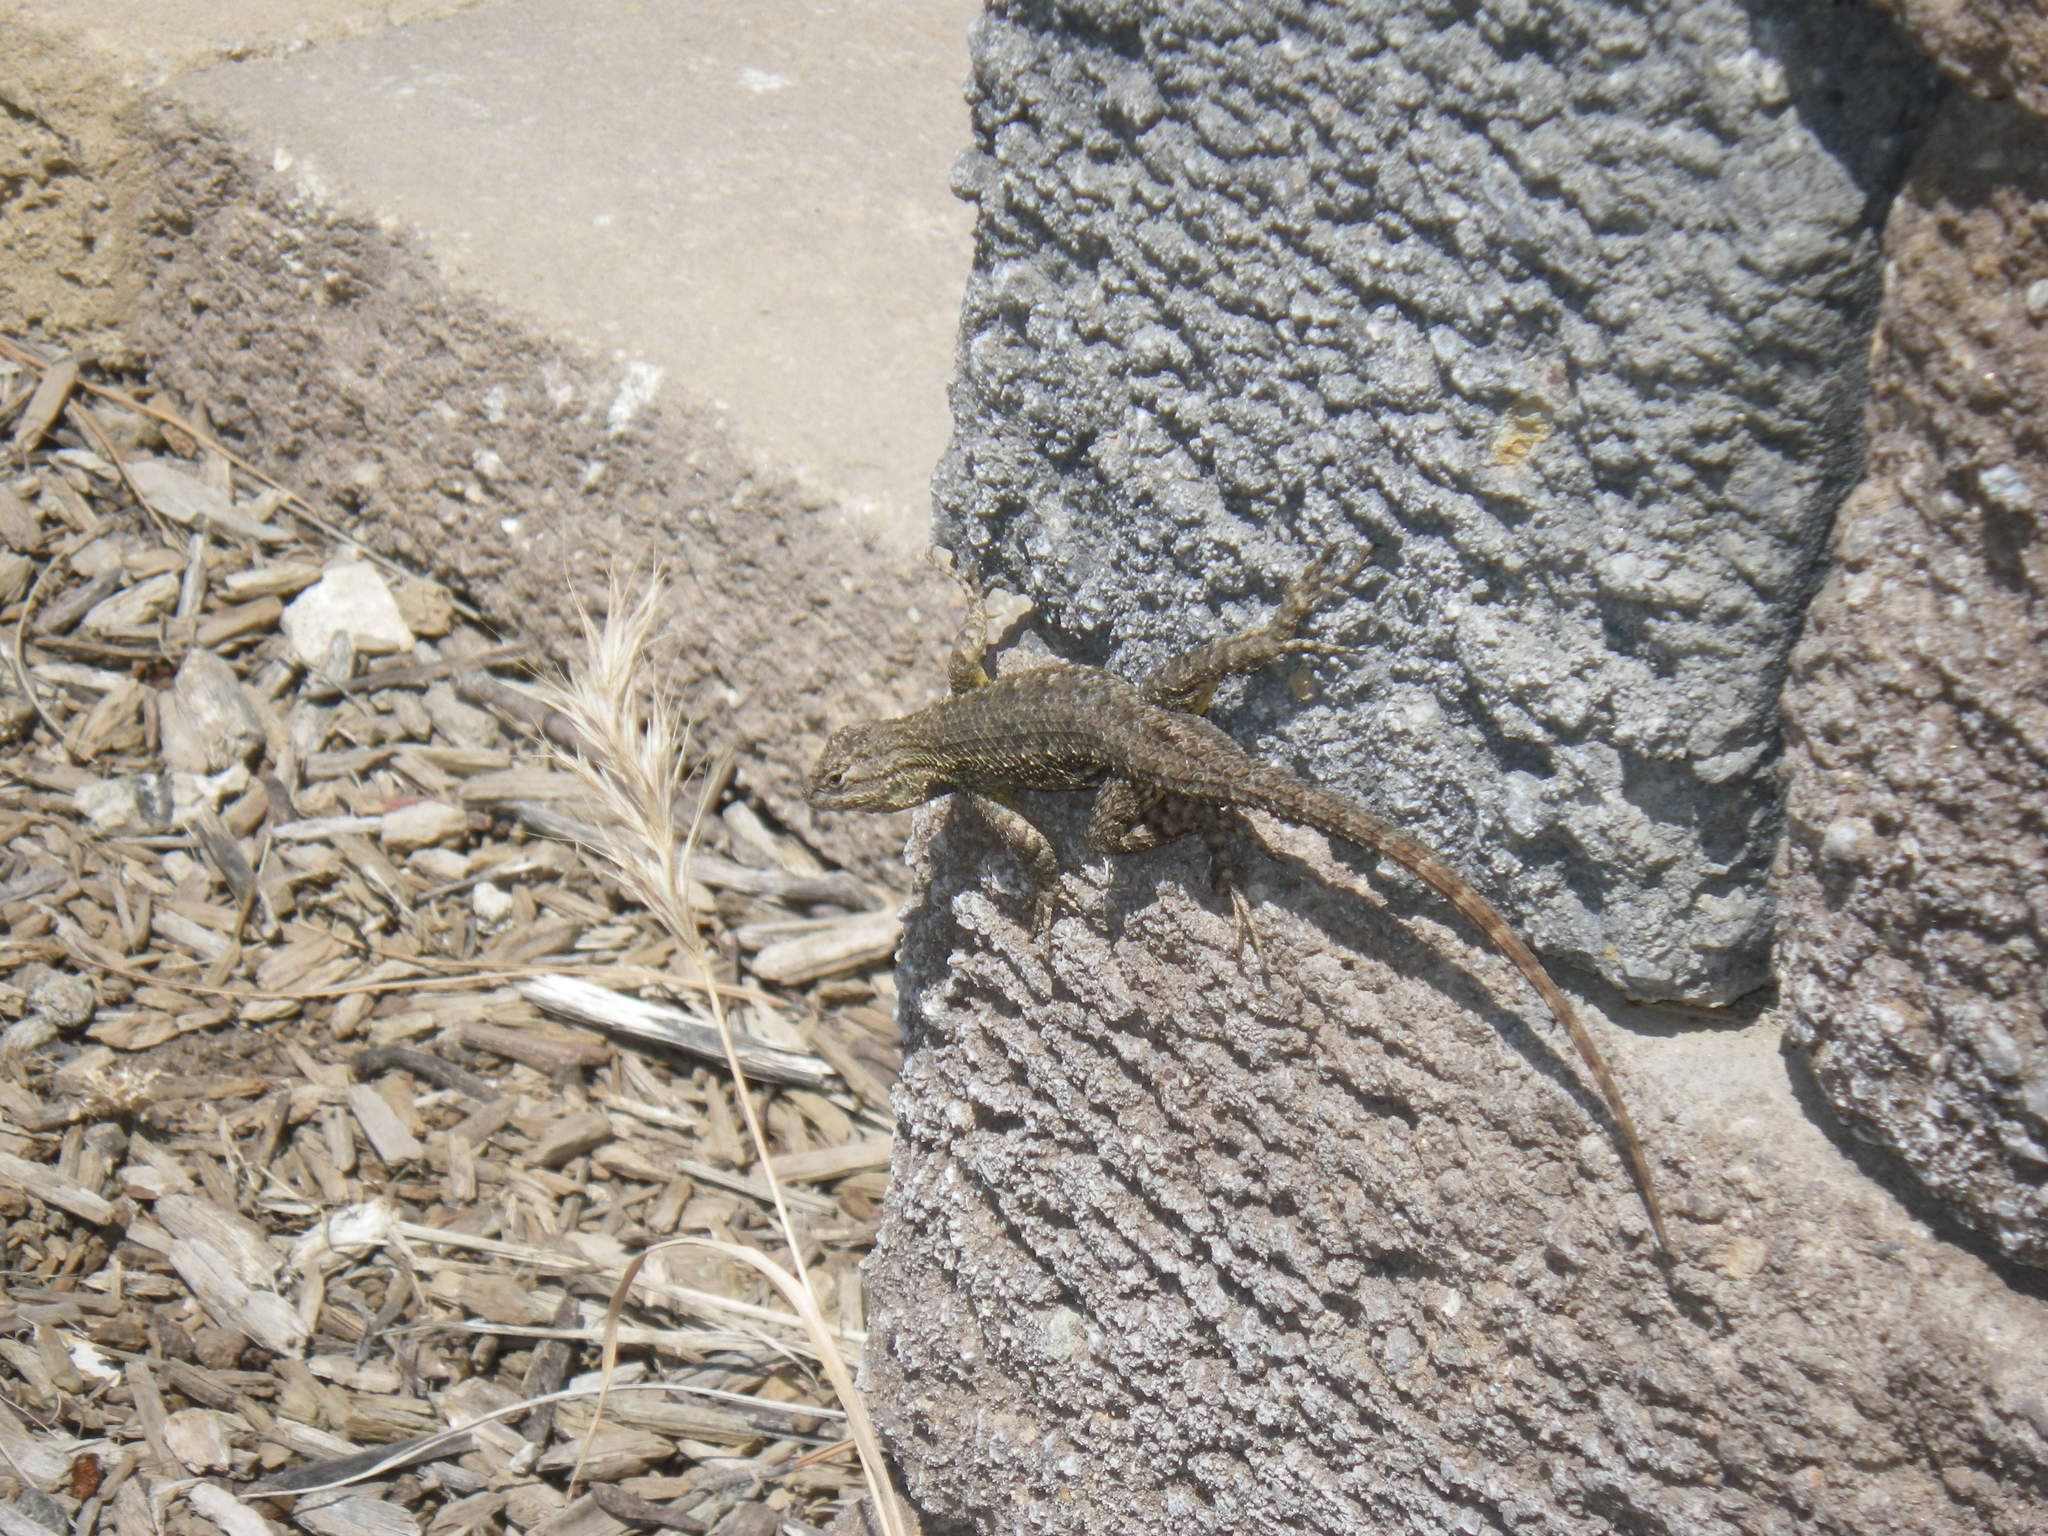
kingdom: Animalia
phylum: Chordata
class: Squamata
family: Phrynosomatidae
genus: Sceloporus
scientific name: Sceloporus occidentalis
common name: Western fence lizard
